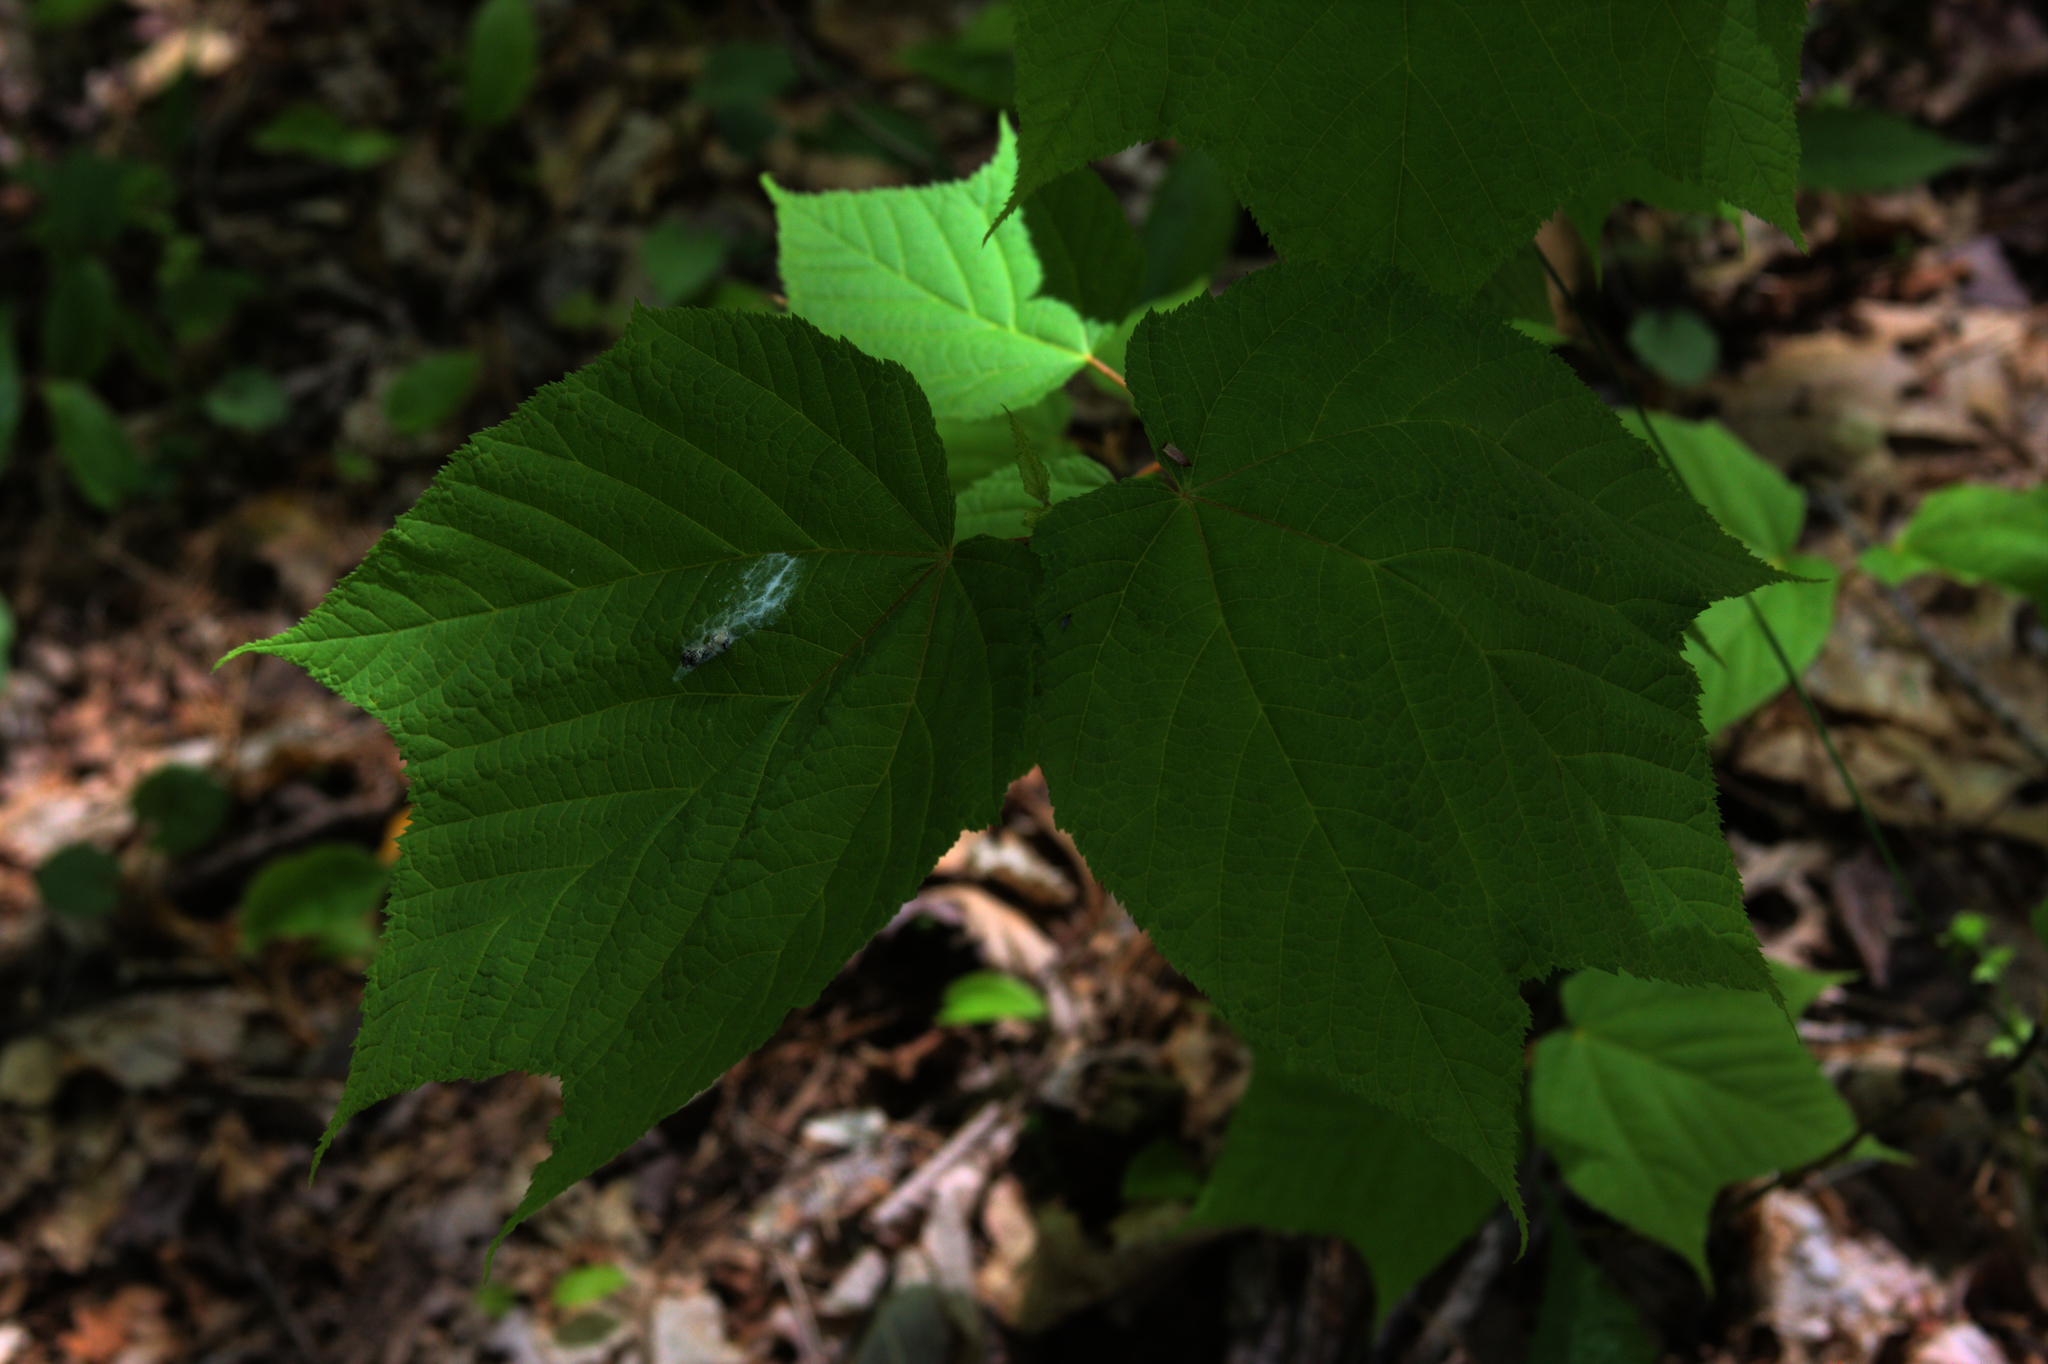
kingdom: Plantae
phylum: Tracheophyta
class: Magnoliopsida
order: Sapindales
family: Sapindaceae
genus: Acer
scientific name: Acer pensylvanicum
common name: Moosewood
